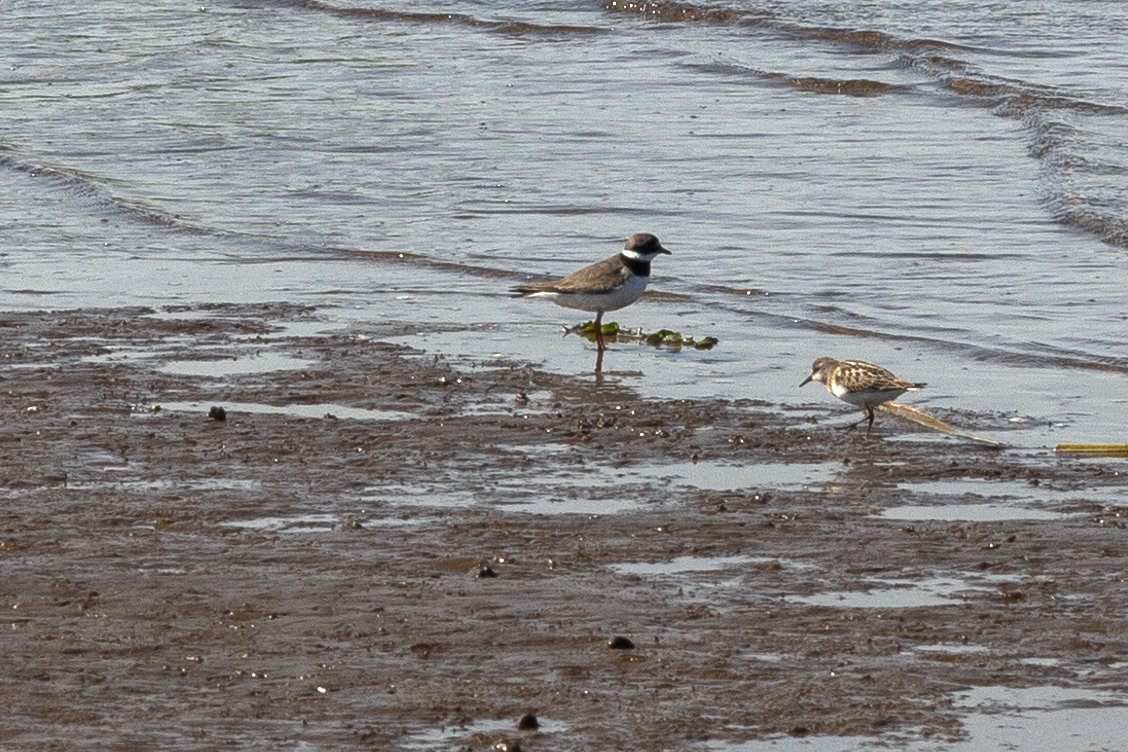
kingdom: Animalia
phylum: Chordata
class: Aves
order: Charadriiformes
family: Charadriidae
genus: Charadrius
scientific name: Charadrius hiaticula
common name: Common ringed plover
